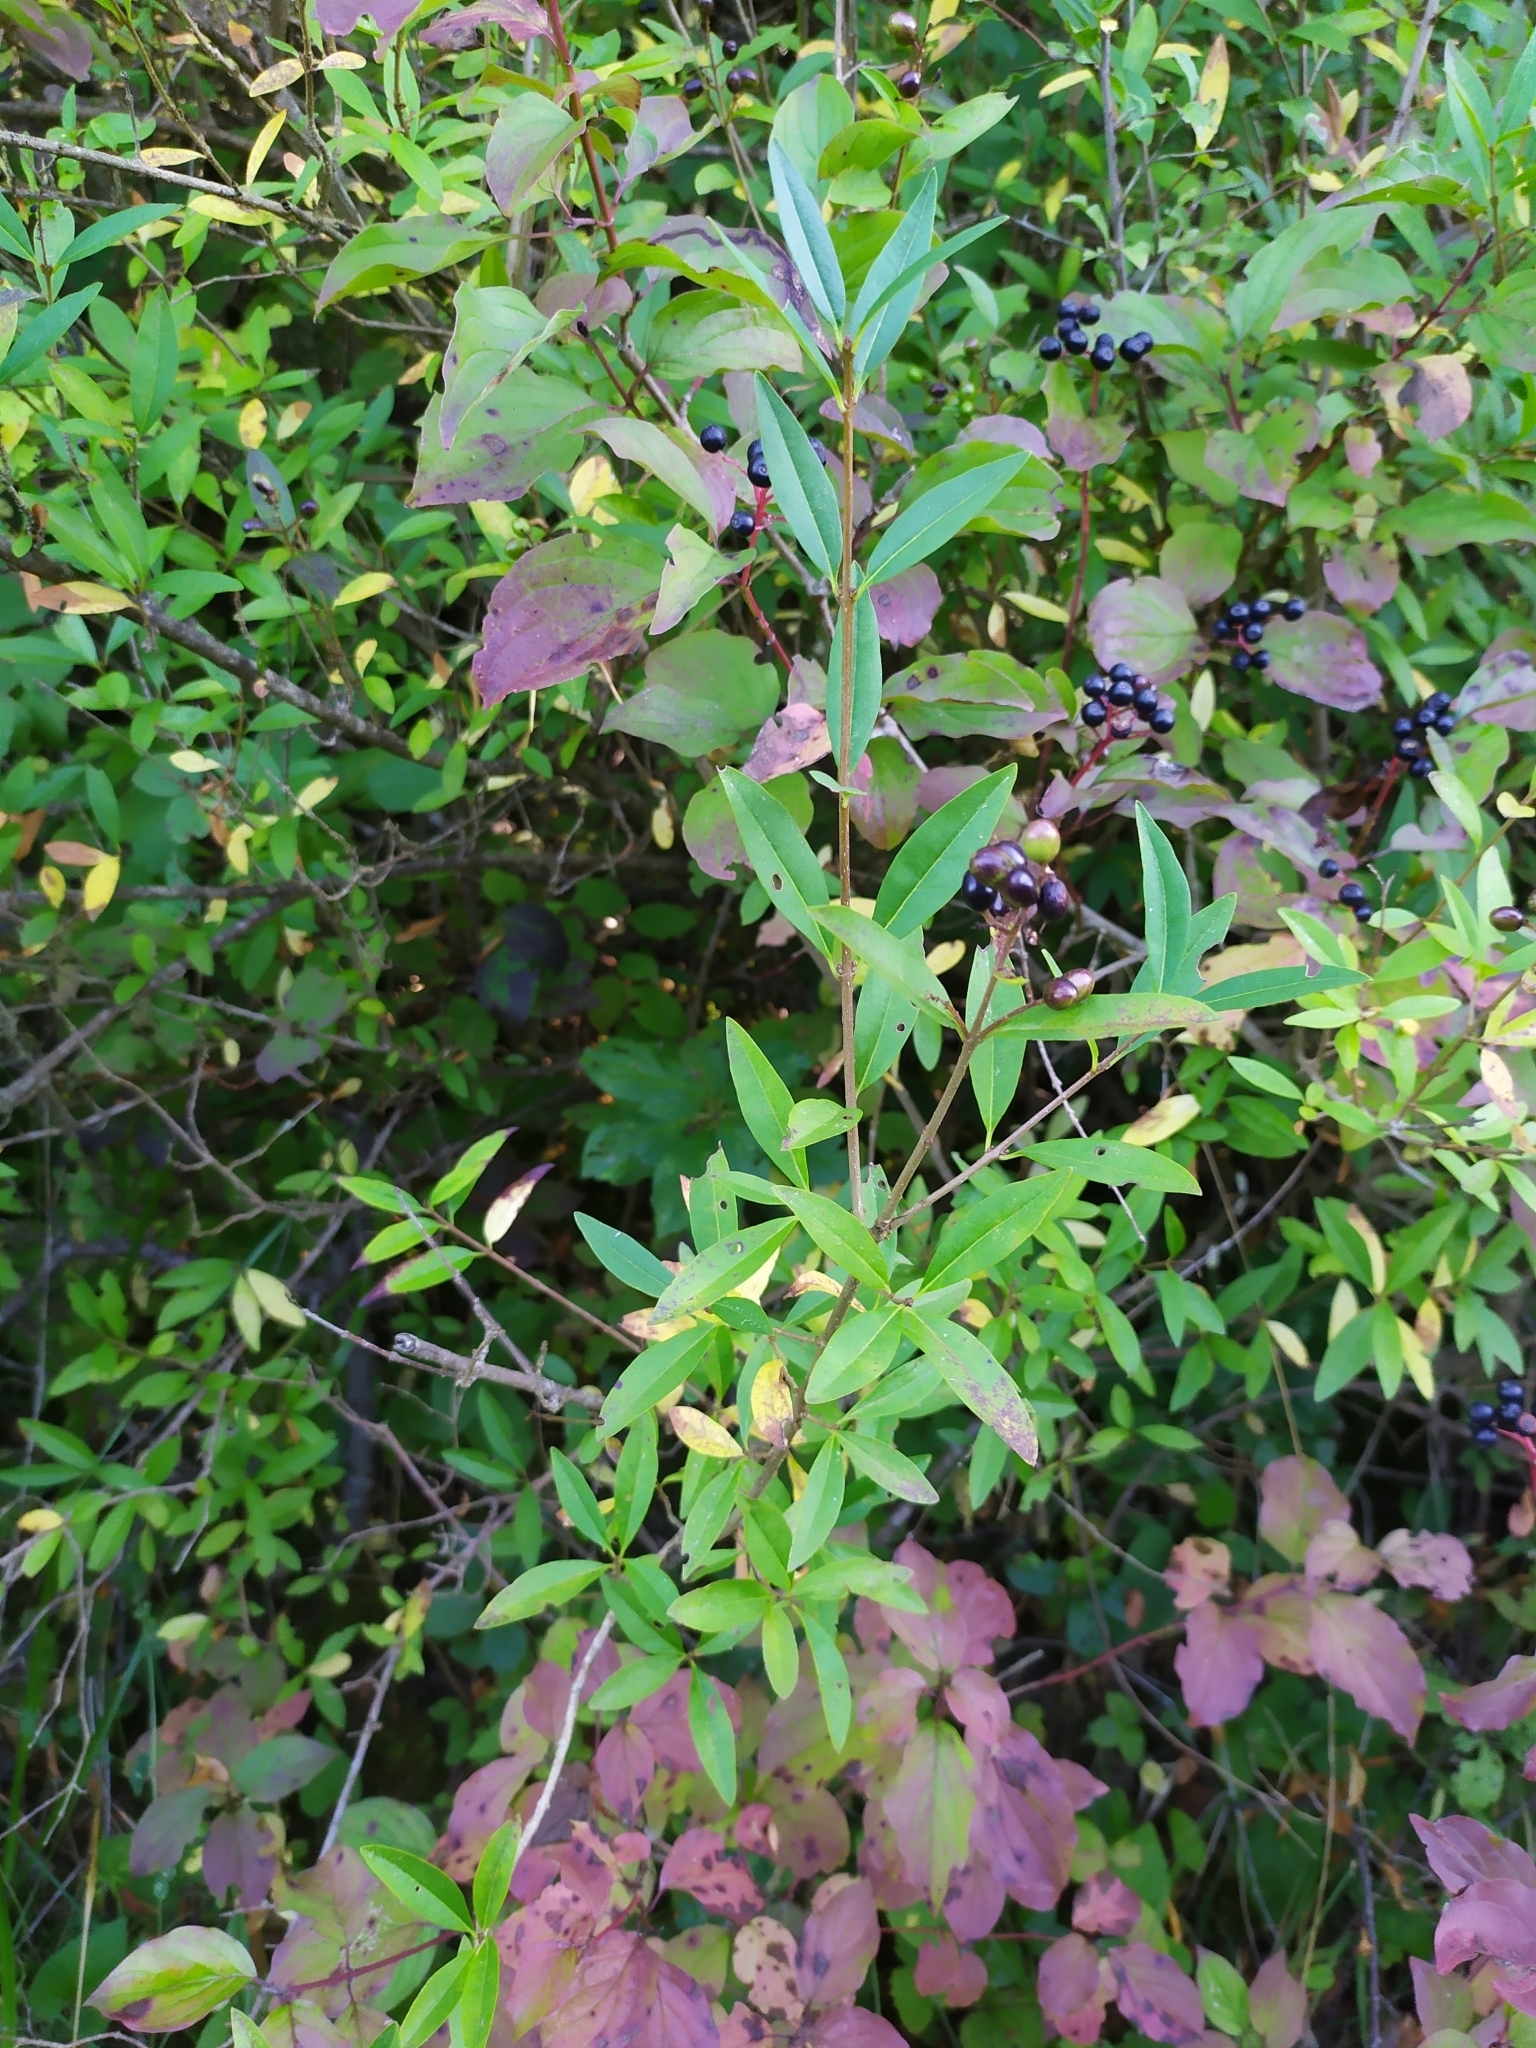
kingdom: Plantae
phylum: Tracheophyta
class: Magnoliopsida
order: Lamiales
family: Oleaceae
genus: Ligustrum
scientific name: Ligustrum vulgare
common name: Wild privet
